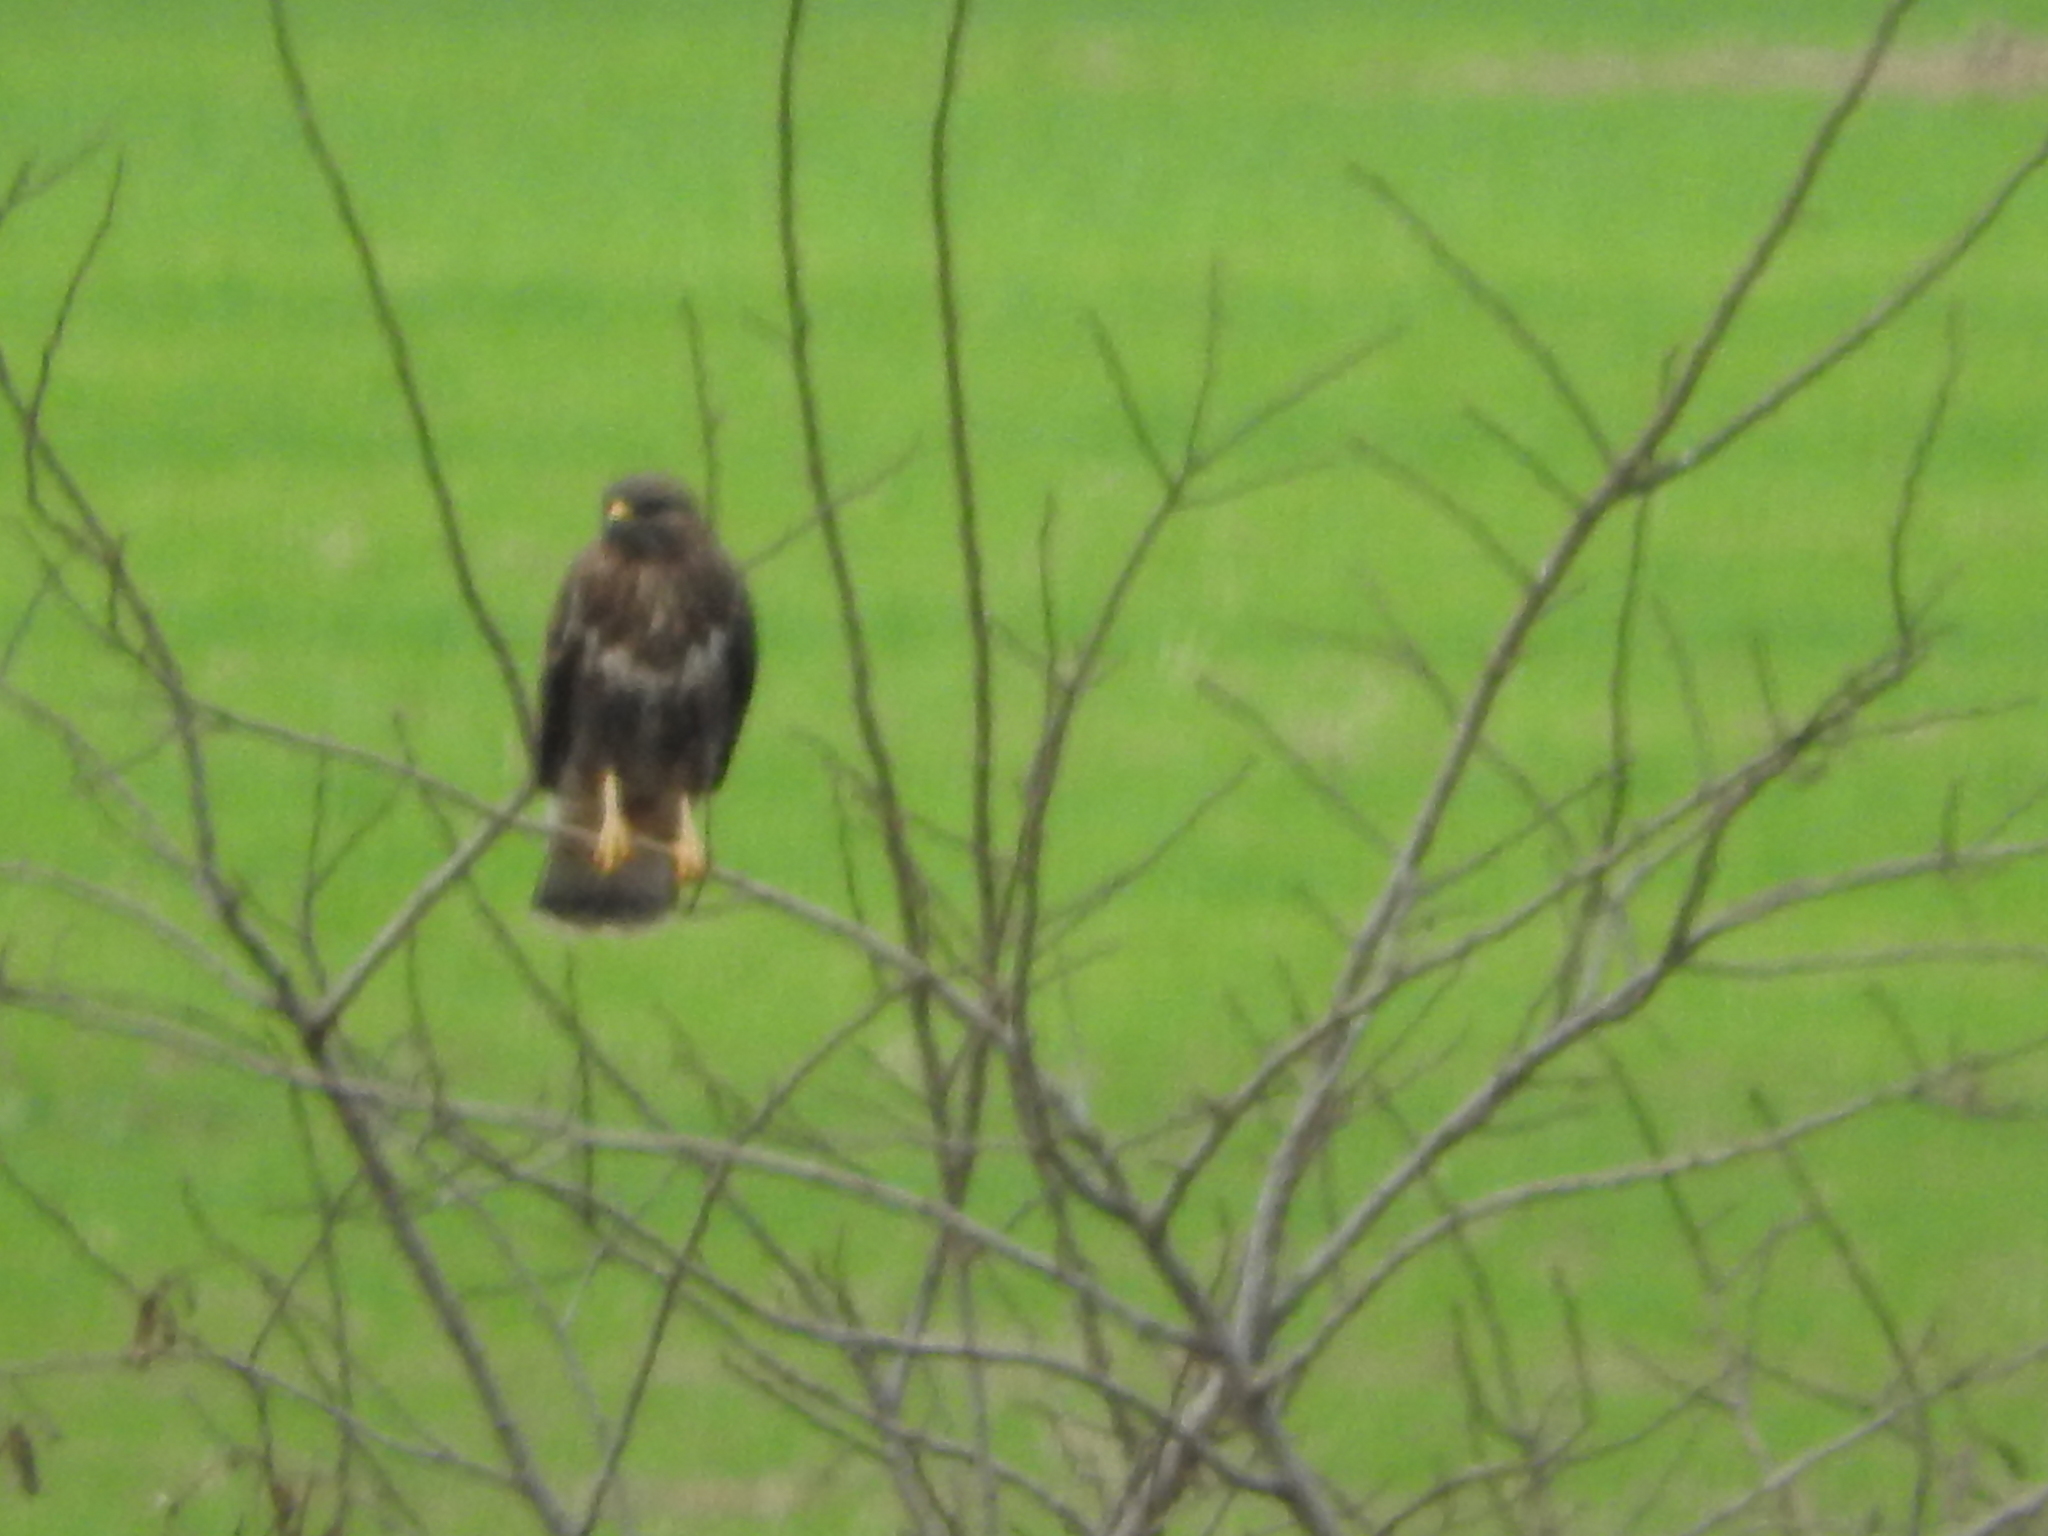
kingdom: Animalia
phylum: Chordata
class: Aves
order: Accipitriformes
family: Accipitridae
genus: Buteo
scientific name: Buteo buteo
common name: Common buzzard
